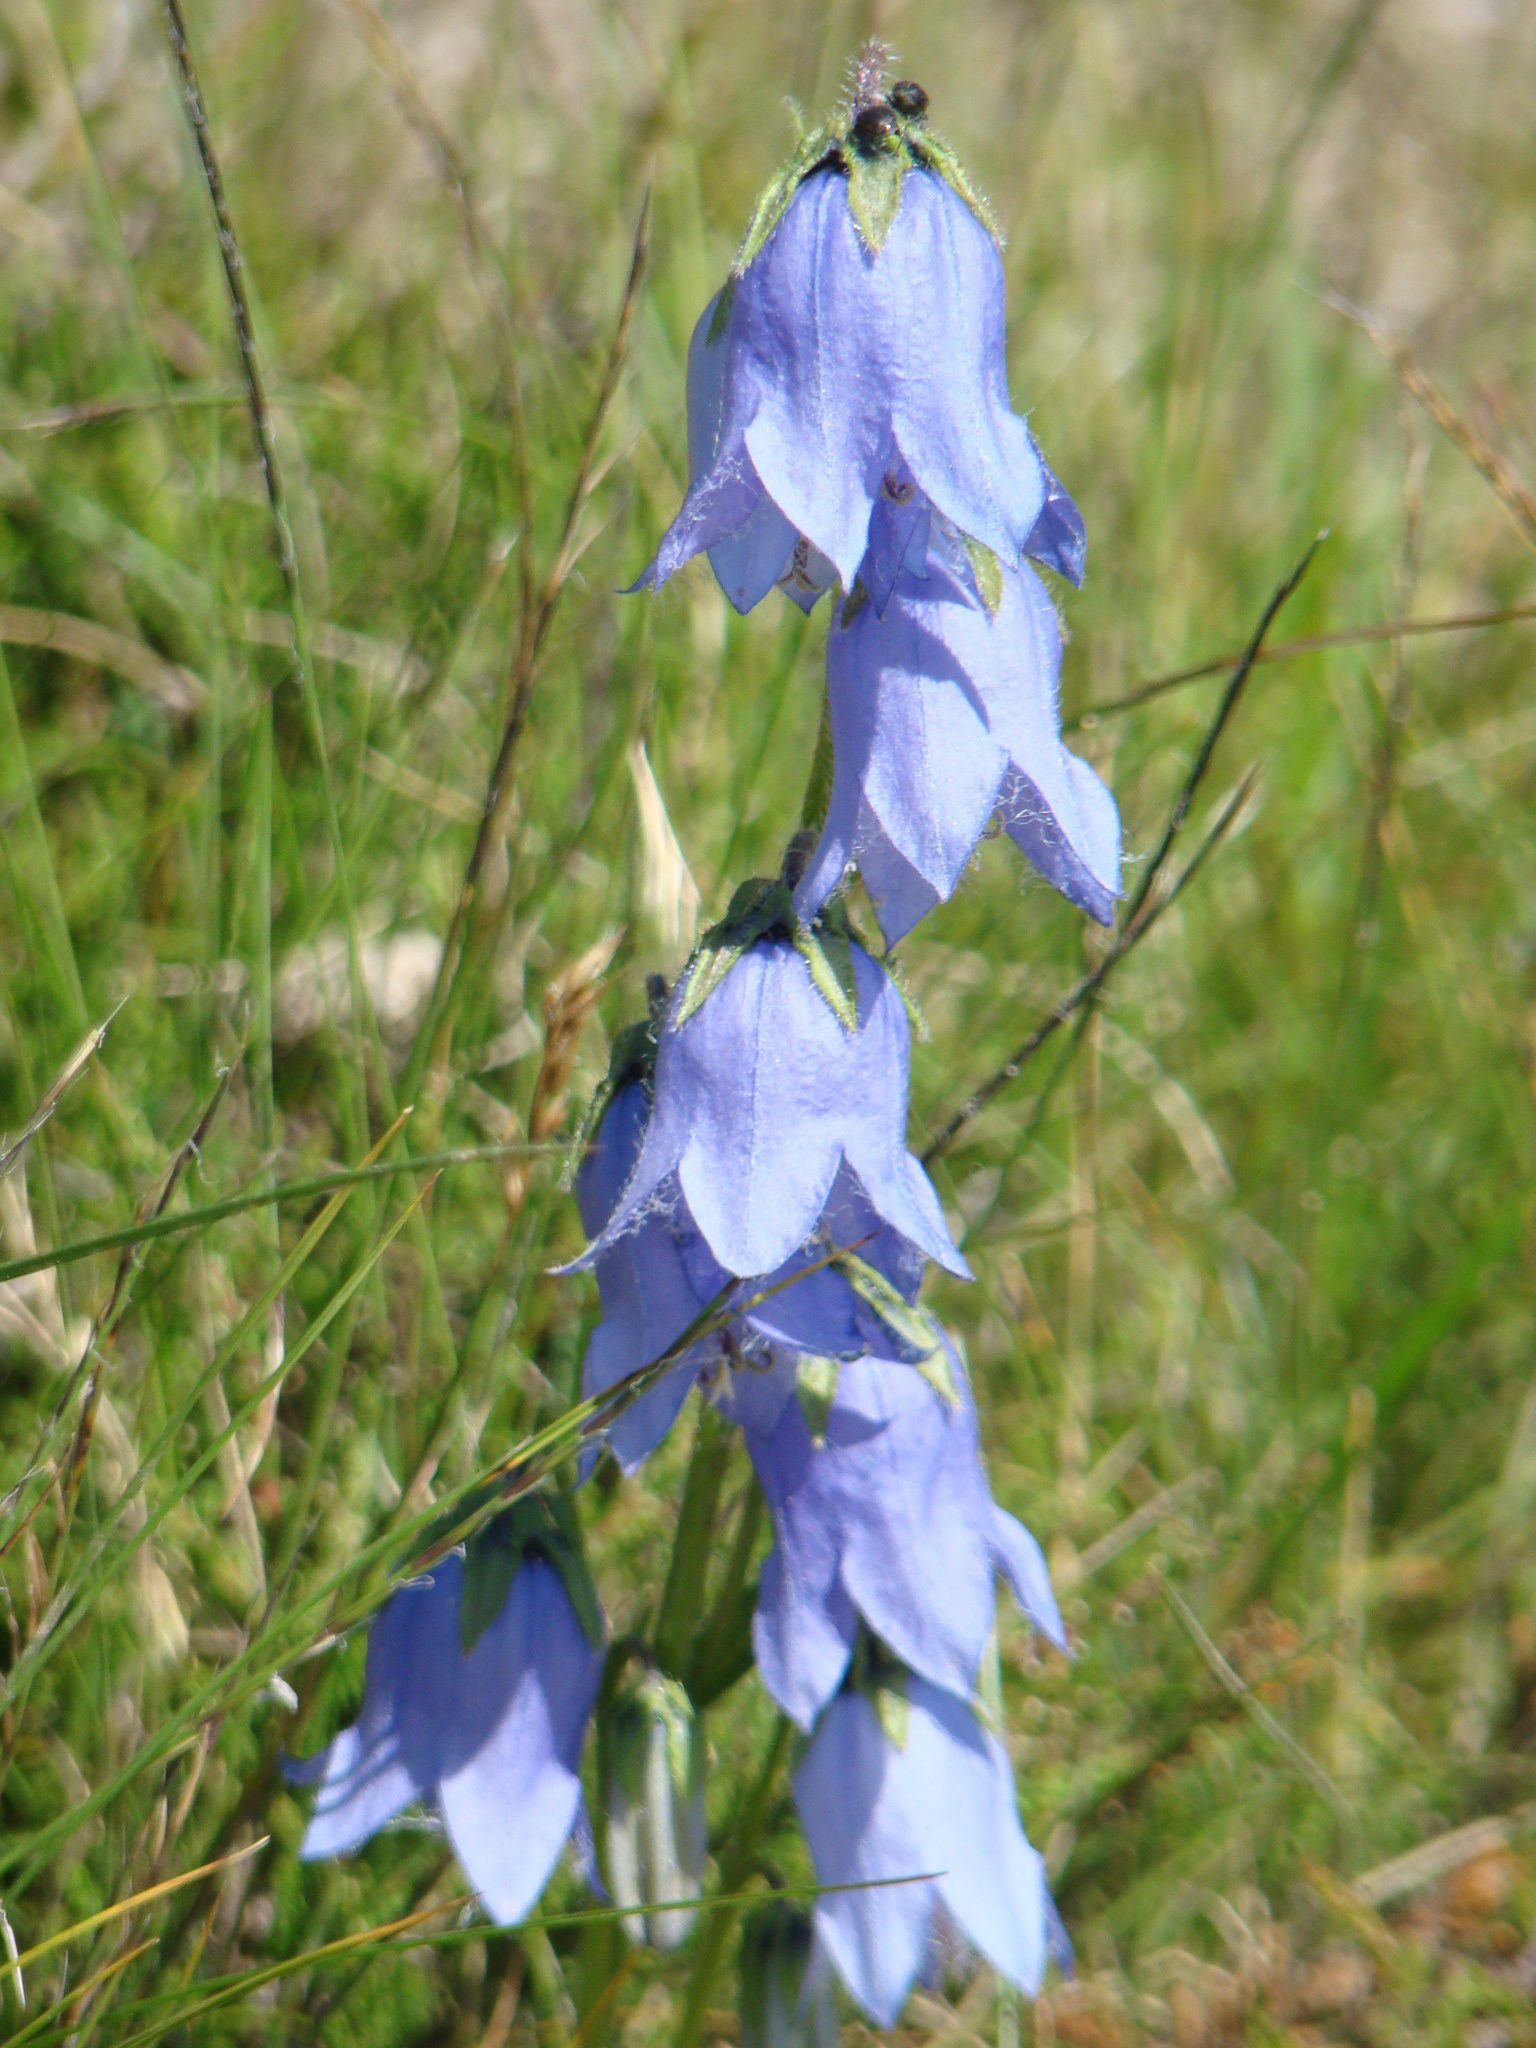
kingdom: Plantae
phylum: Tracheophyta
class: Magnoliopsida
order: Asterales
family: Campanulaceae
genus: Campanula
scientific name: Campanula barbata
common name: Bearded bellflower
